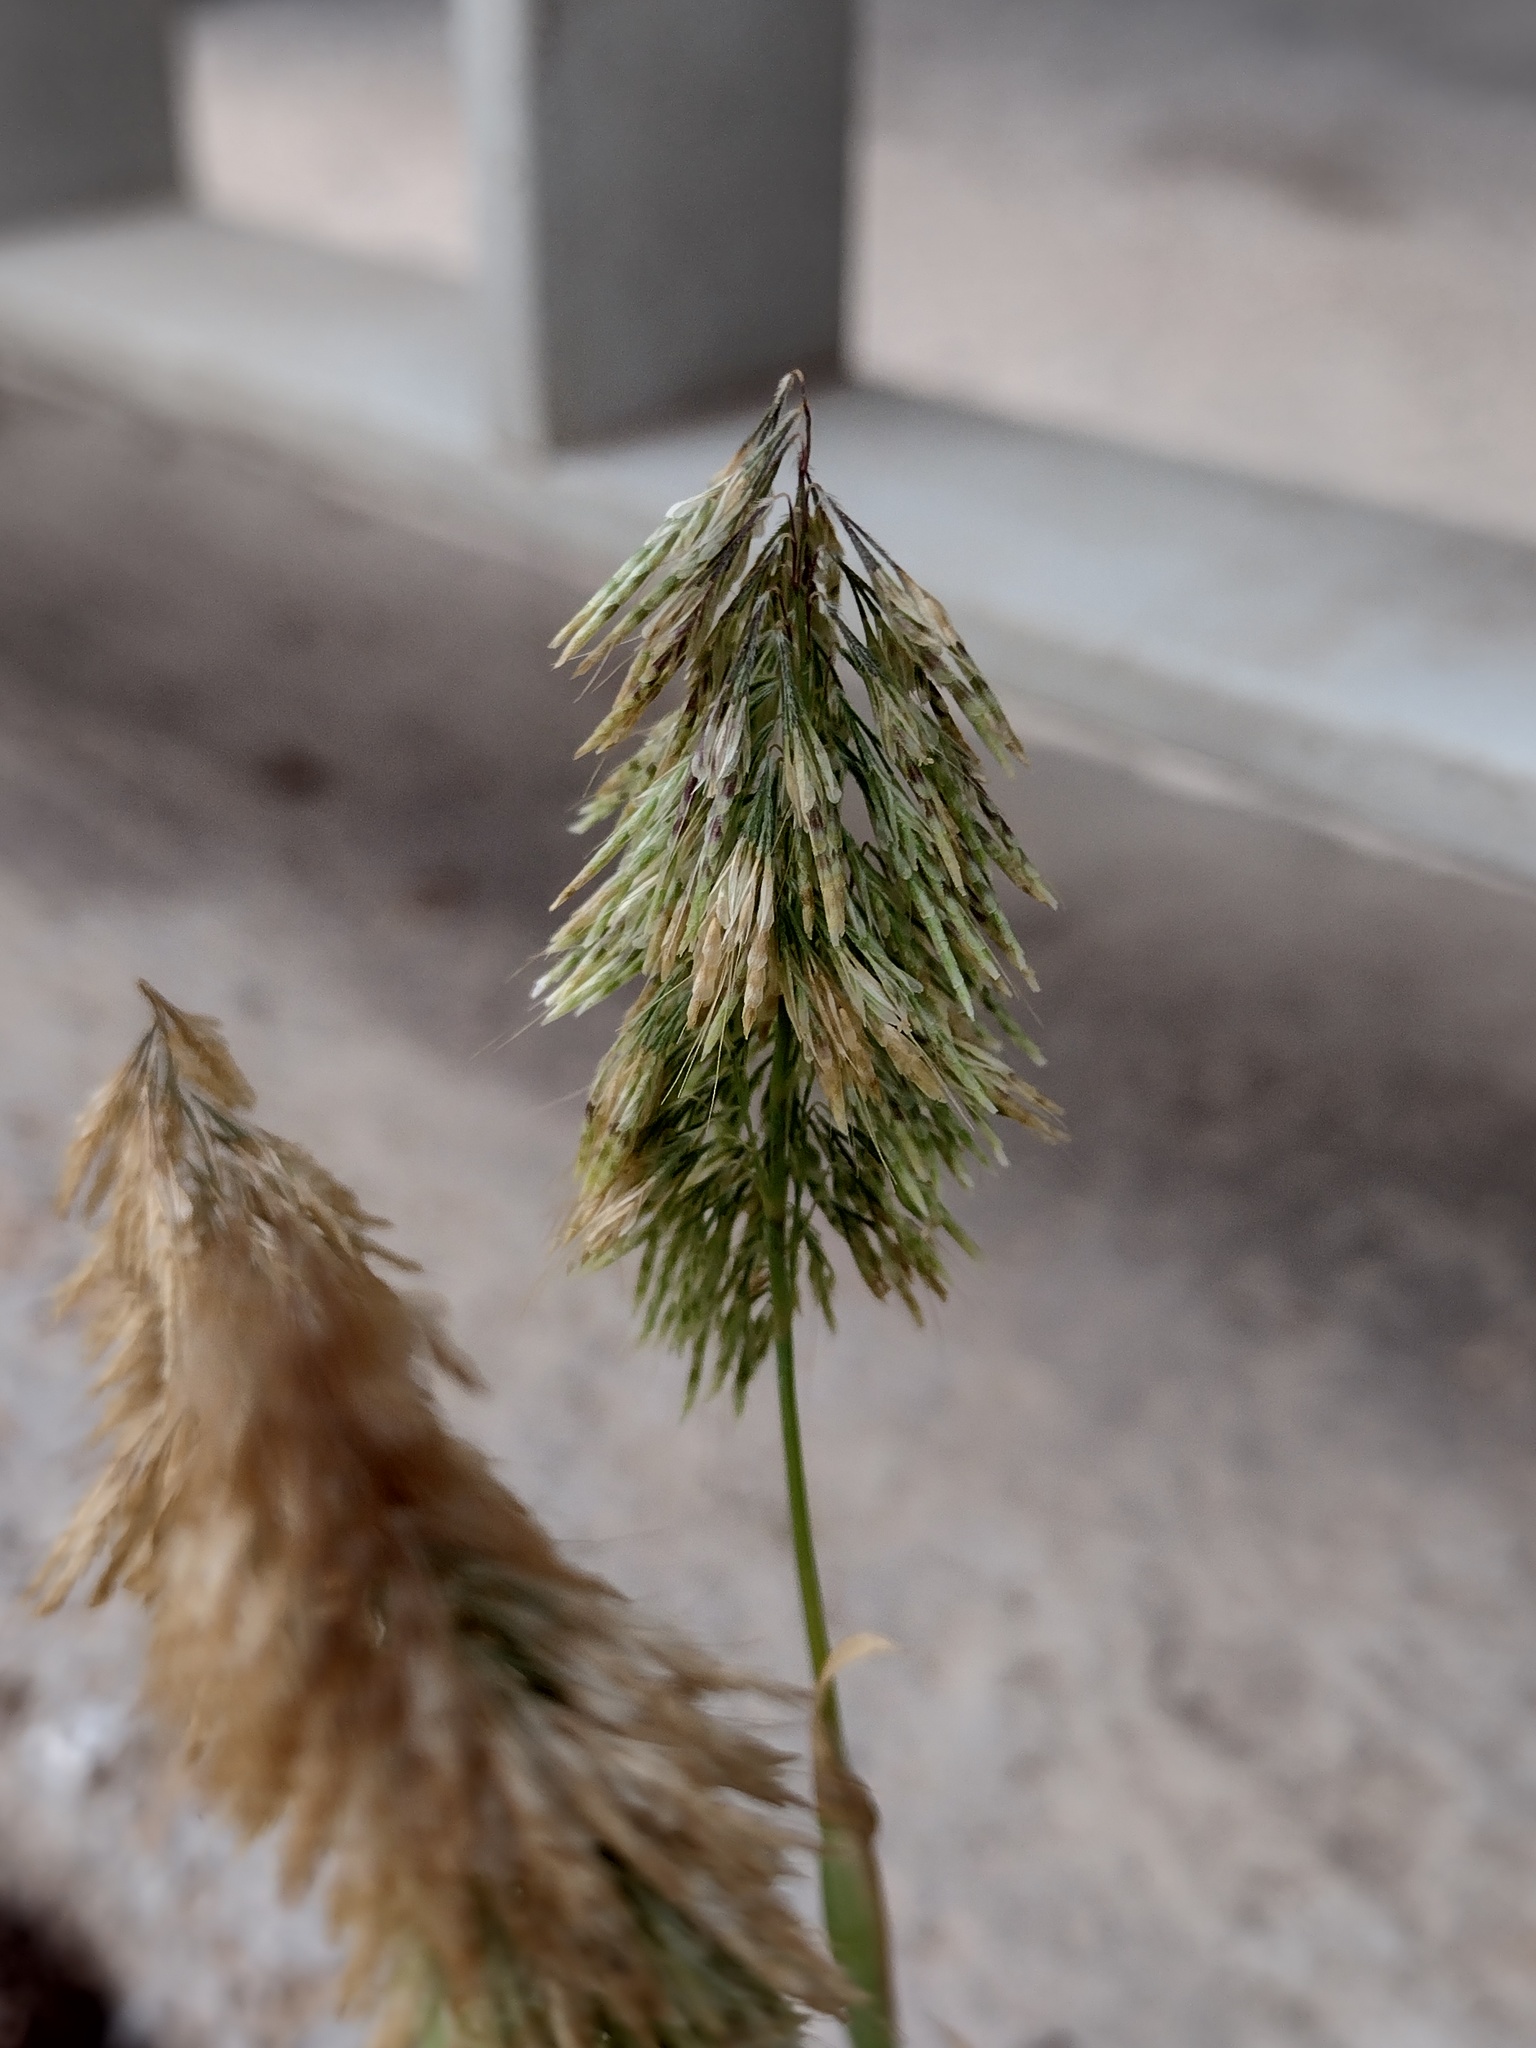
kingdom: Plantae
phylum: Tracheophyta
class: Liliopsida
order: Poales
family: Poaceae
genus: Lamarckia
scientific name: Lamarckia aurea
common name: Golden dog's-tail
